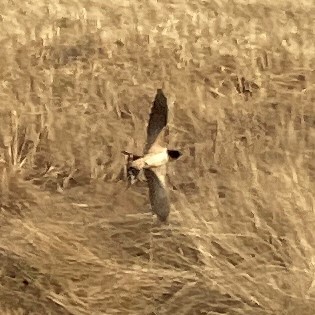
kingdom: Animalia
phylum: Chordata
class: Aves
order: Passeriformes
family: Hirundinidae
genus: Hirundo
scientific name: Hirundo rustica
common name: Barn swallow
